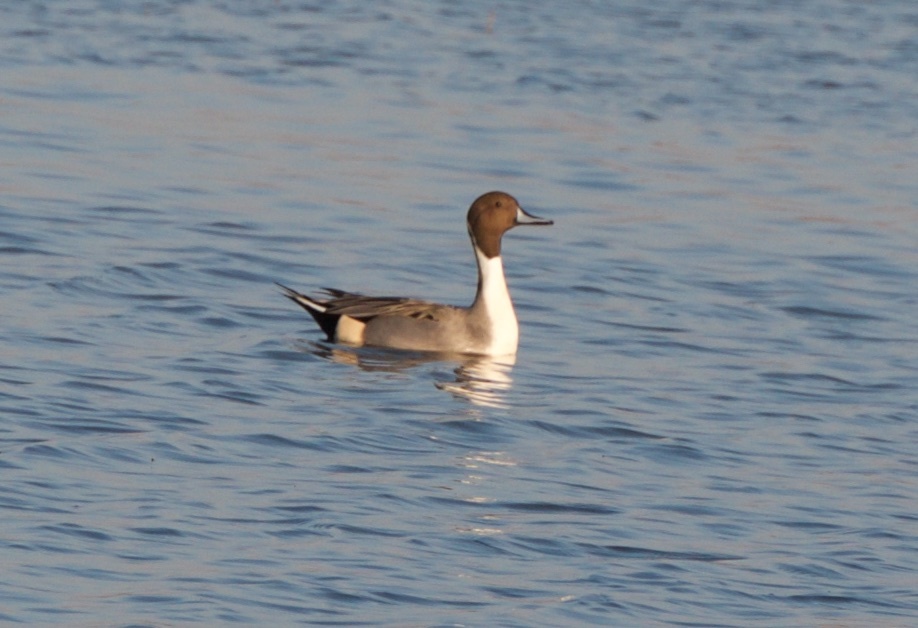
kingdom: Animalia
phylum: Chordata
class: Aves
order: Anseriformes
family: Anatidae
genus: Anas
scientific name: Anas acuta
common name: Northern pintail
